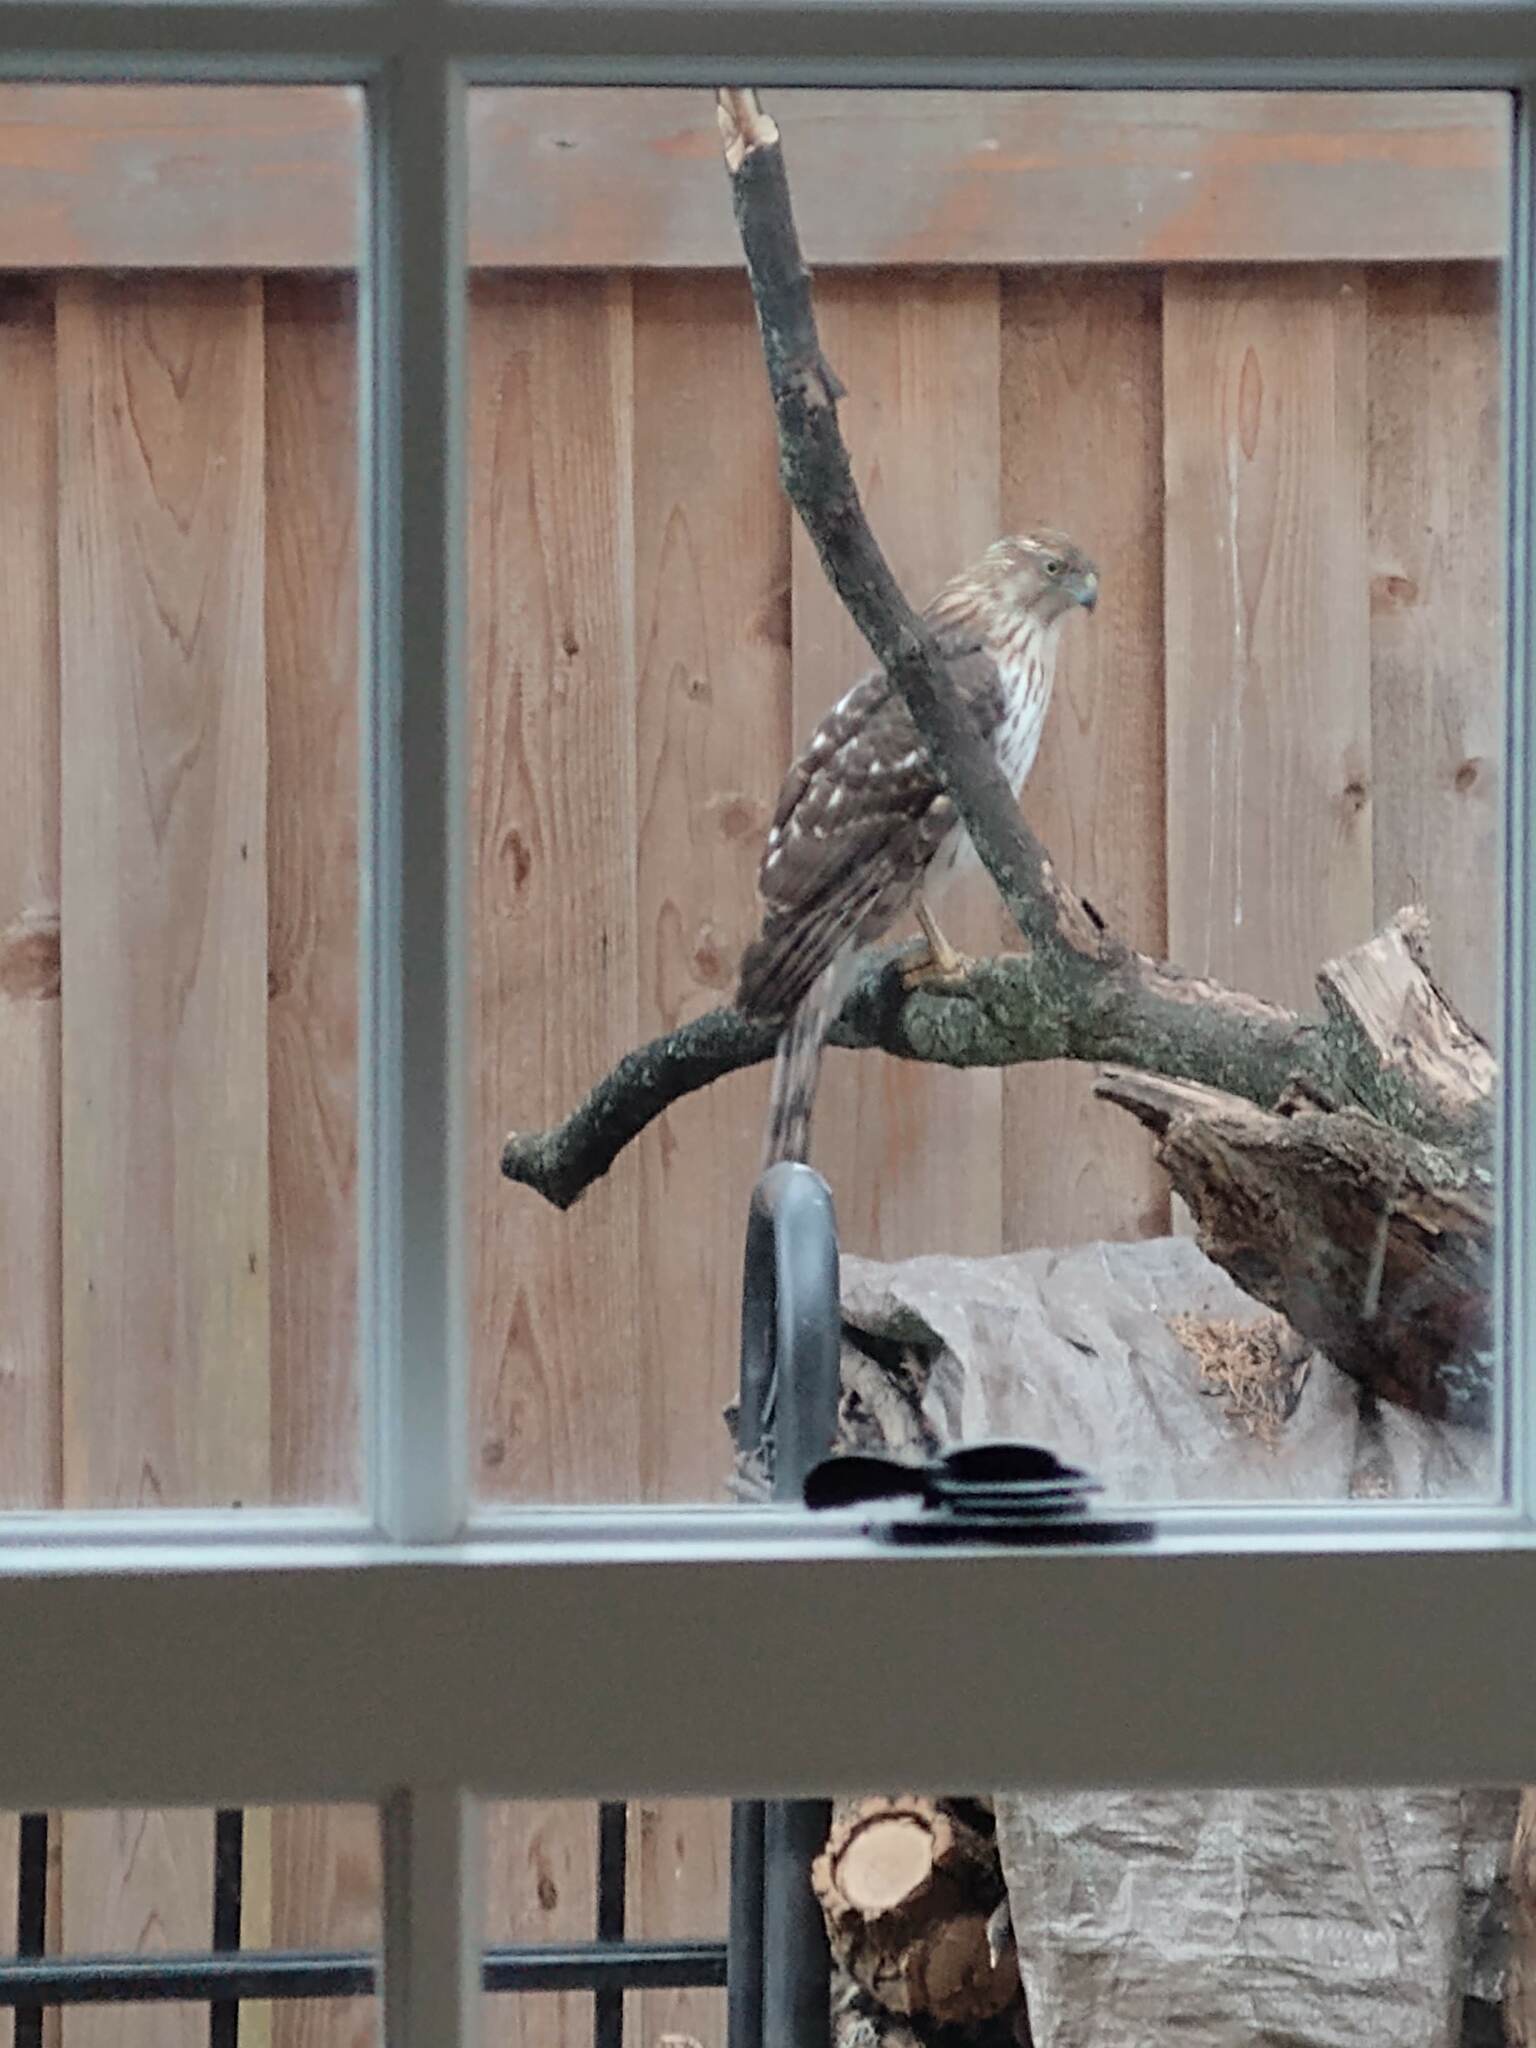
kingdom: Animalia
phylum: Chordata
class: Aves
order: Accipitriformes
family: Accipitridae
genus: Accipiter
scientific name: Accipiter cooperii
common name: Cooper's hawk
